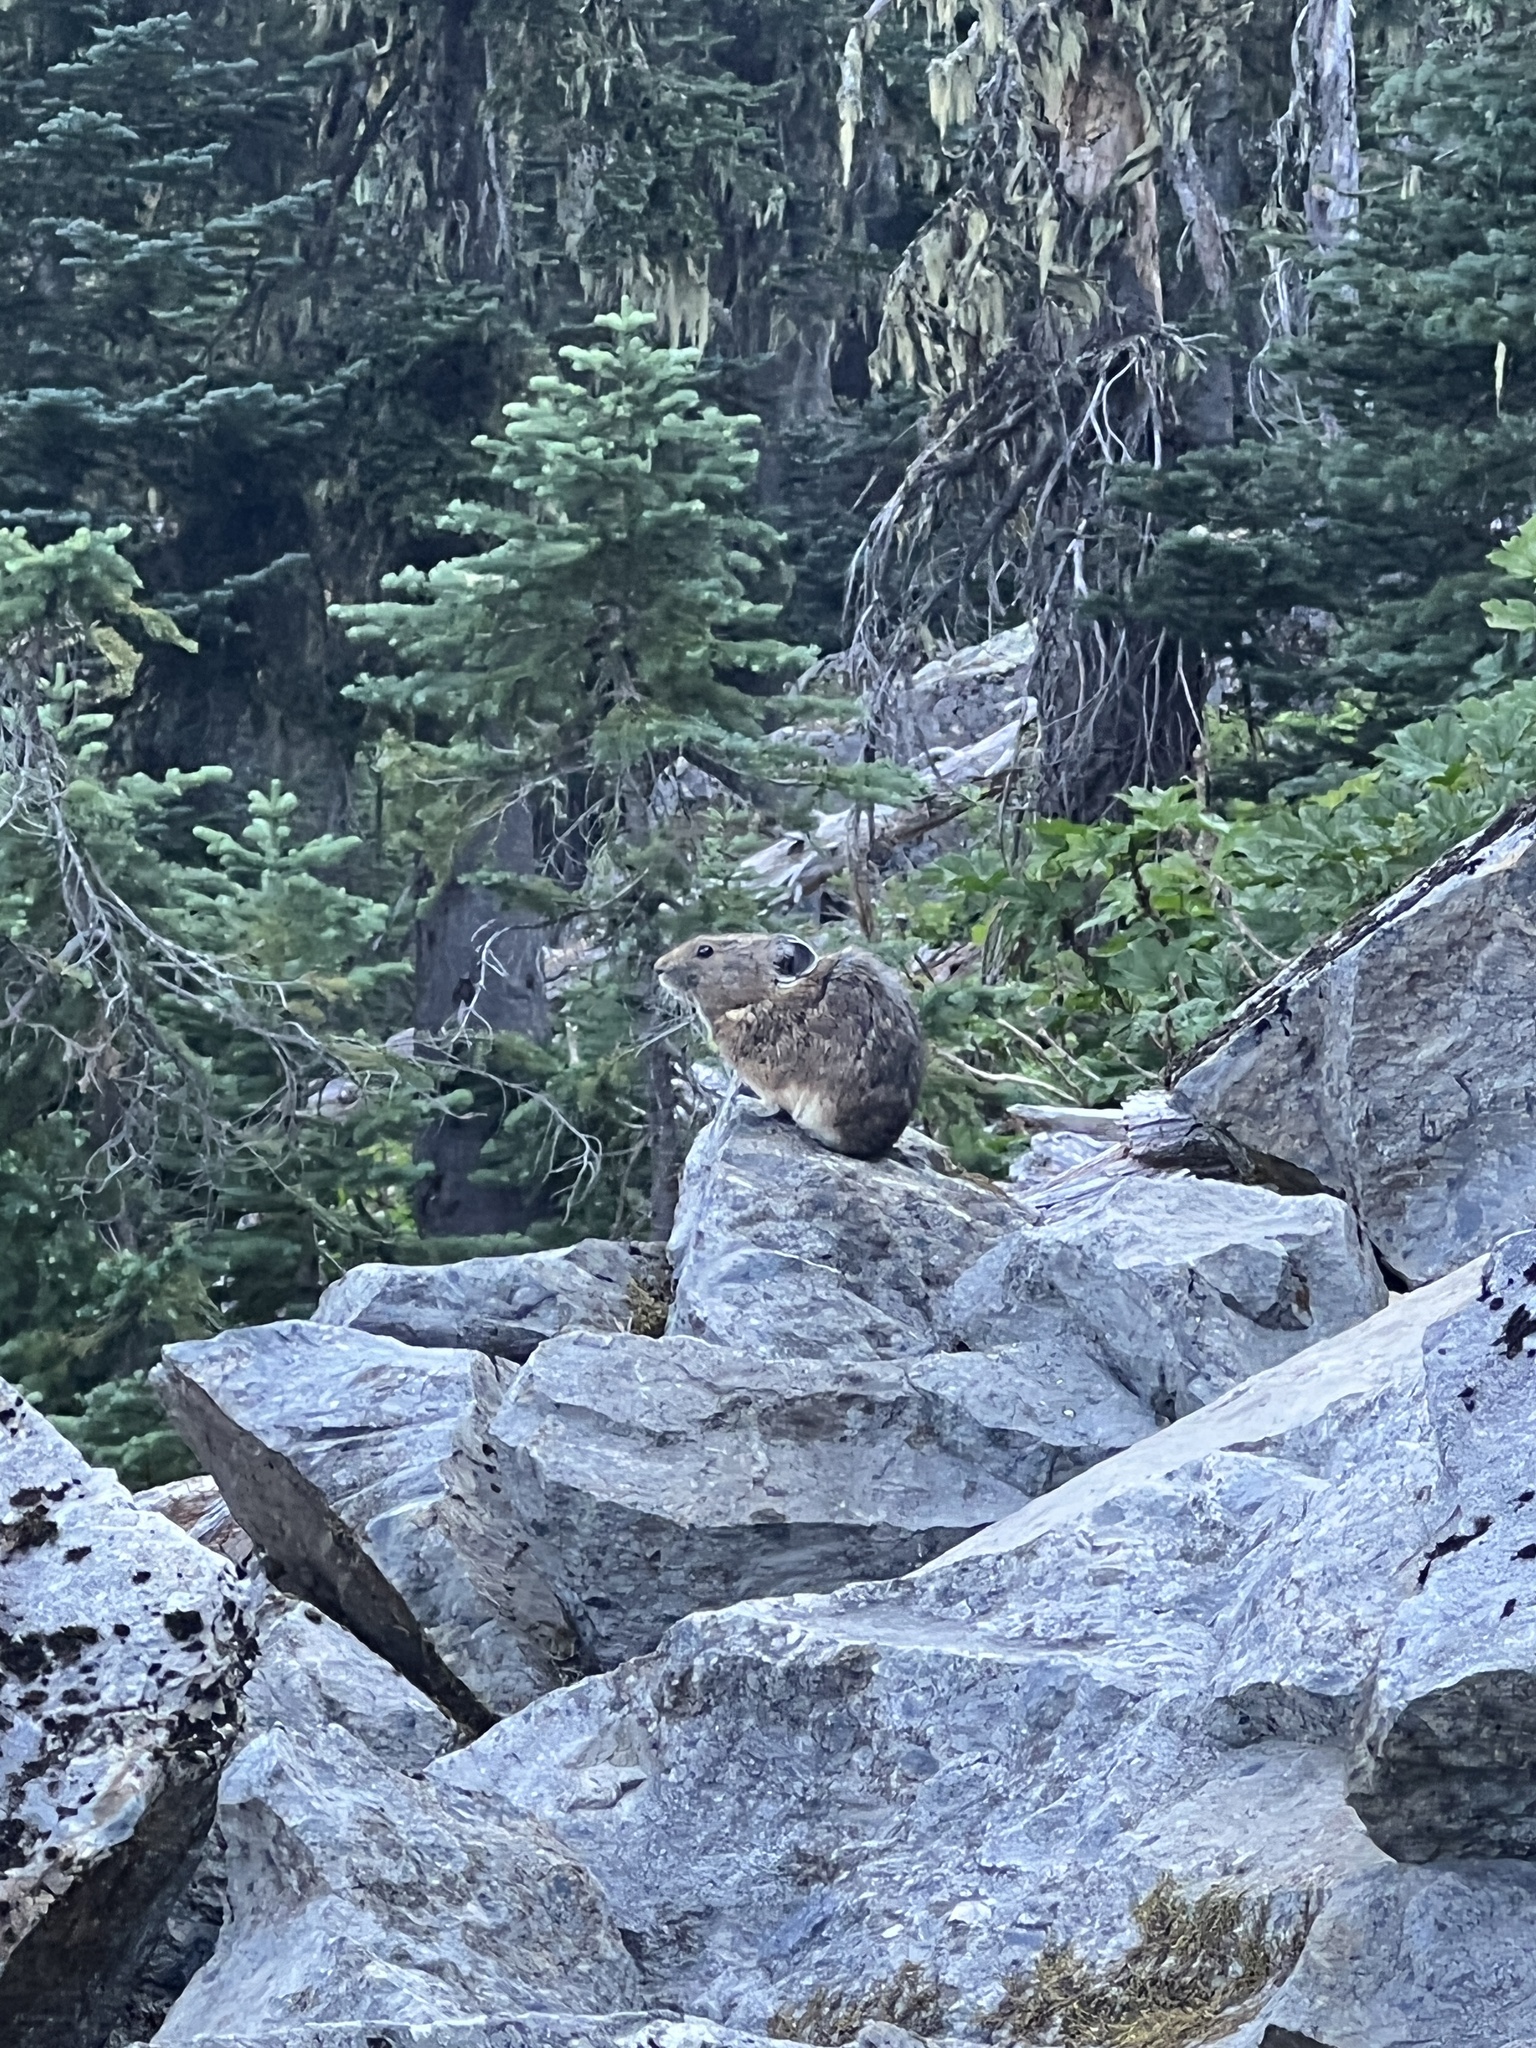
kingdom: Animalia
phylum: Chordata
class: Mammalia
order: Lagomorpha
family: Ochotonidae
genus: Ochotona
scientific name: Ochotona princeps
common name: American pika
